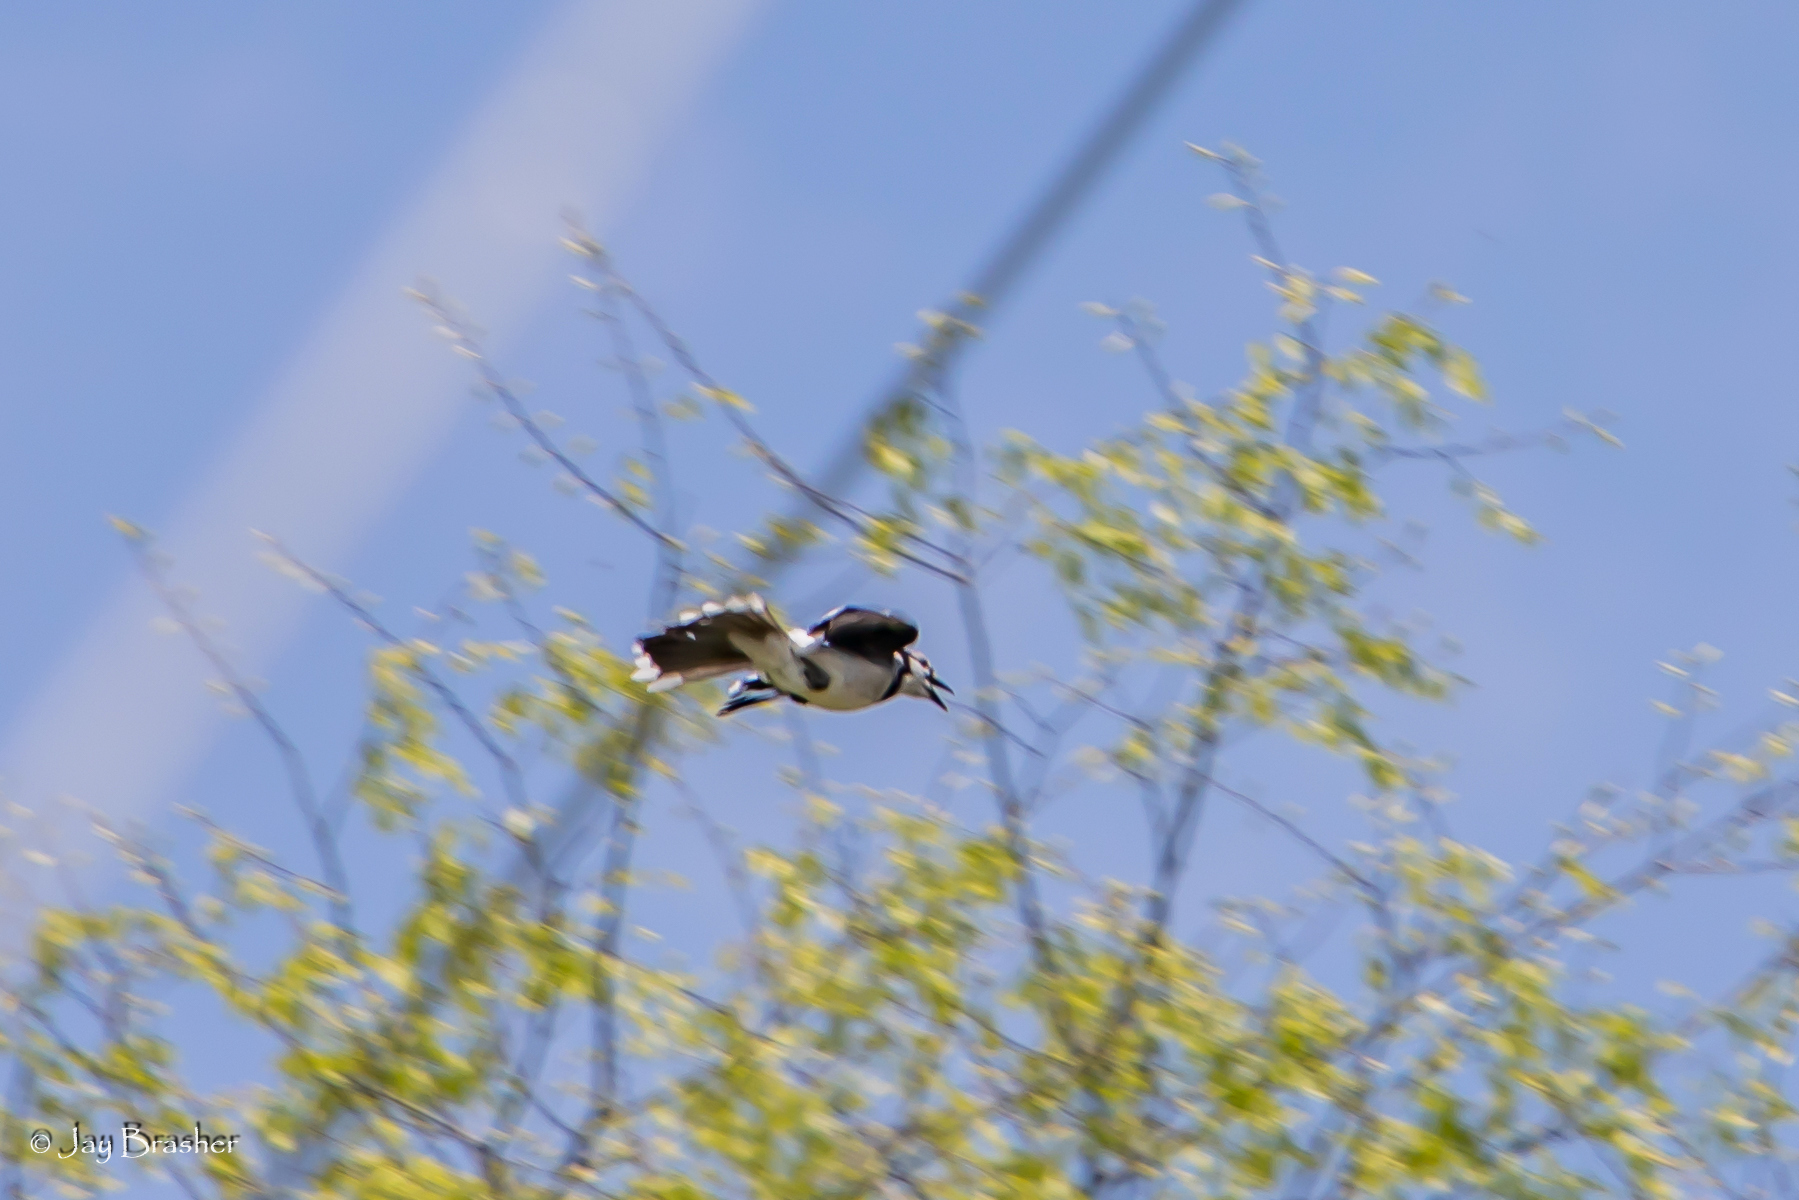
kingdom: Animalia
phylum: Chordata
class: Aves
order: Passeriformes
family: Corvidae
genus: Cyanocitta
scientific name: Cyanocitta cristata
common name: Blue jay
